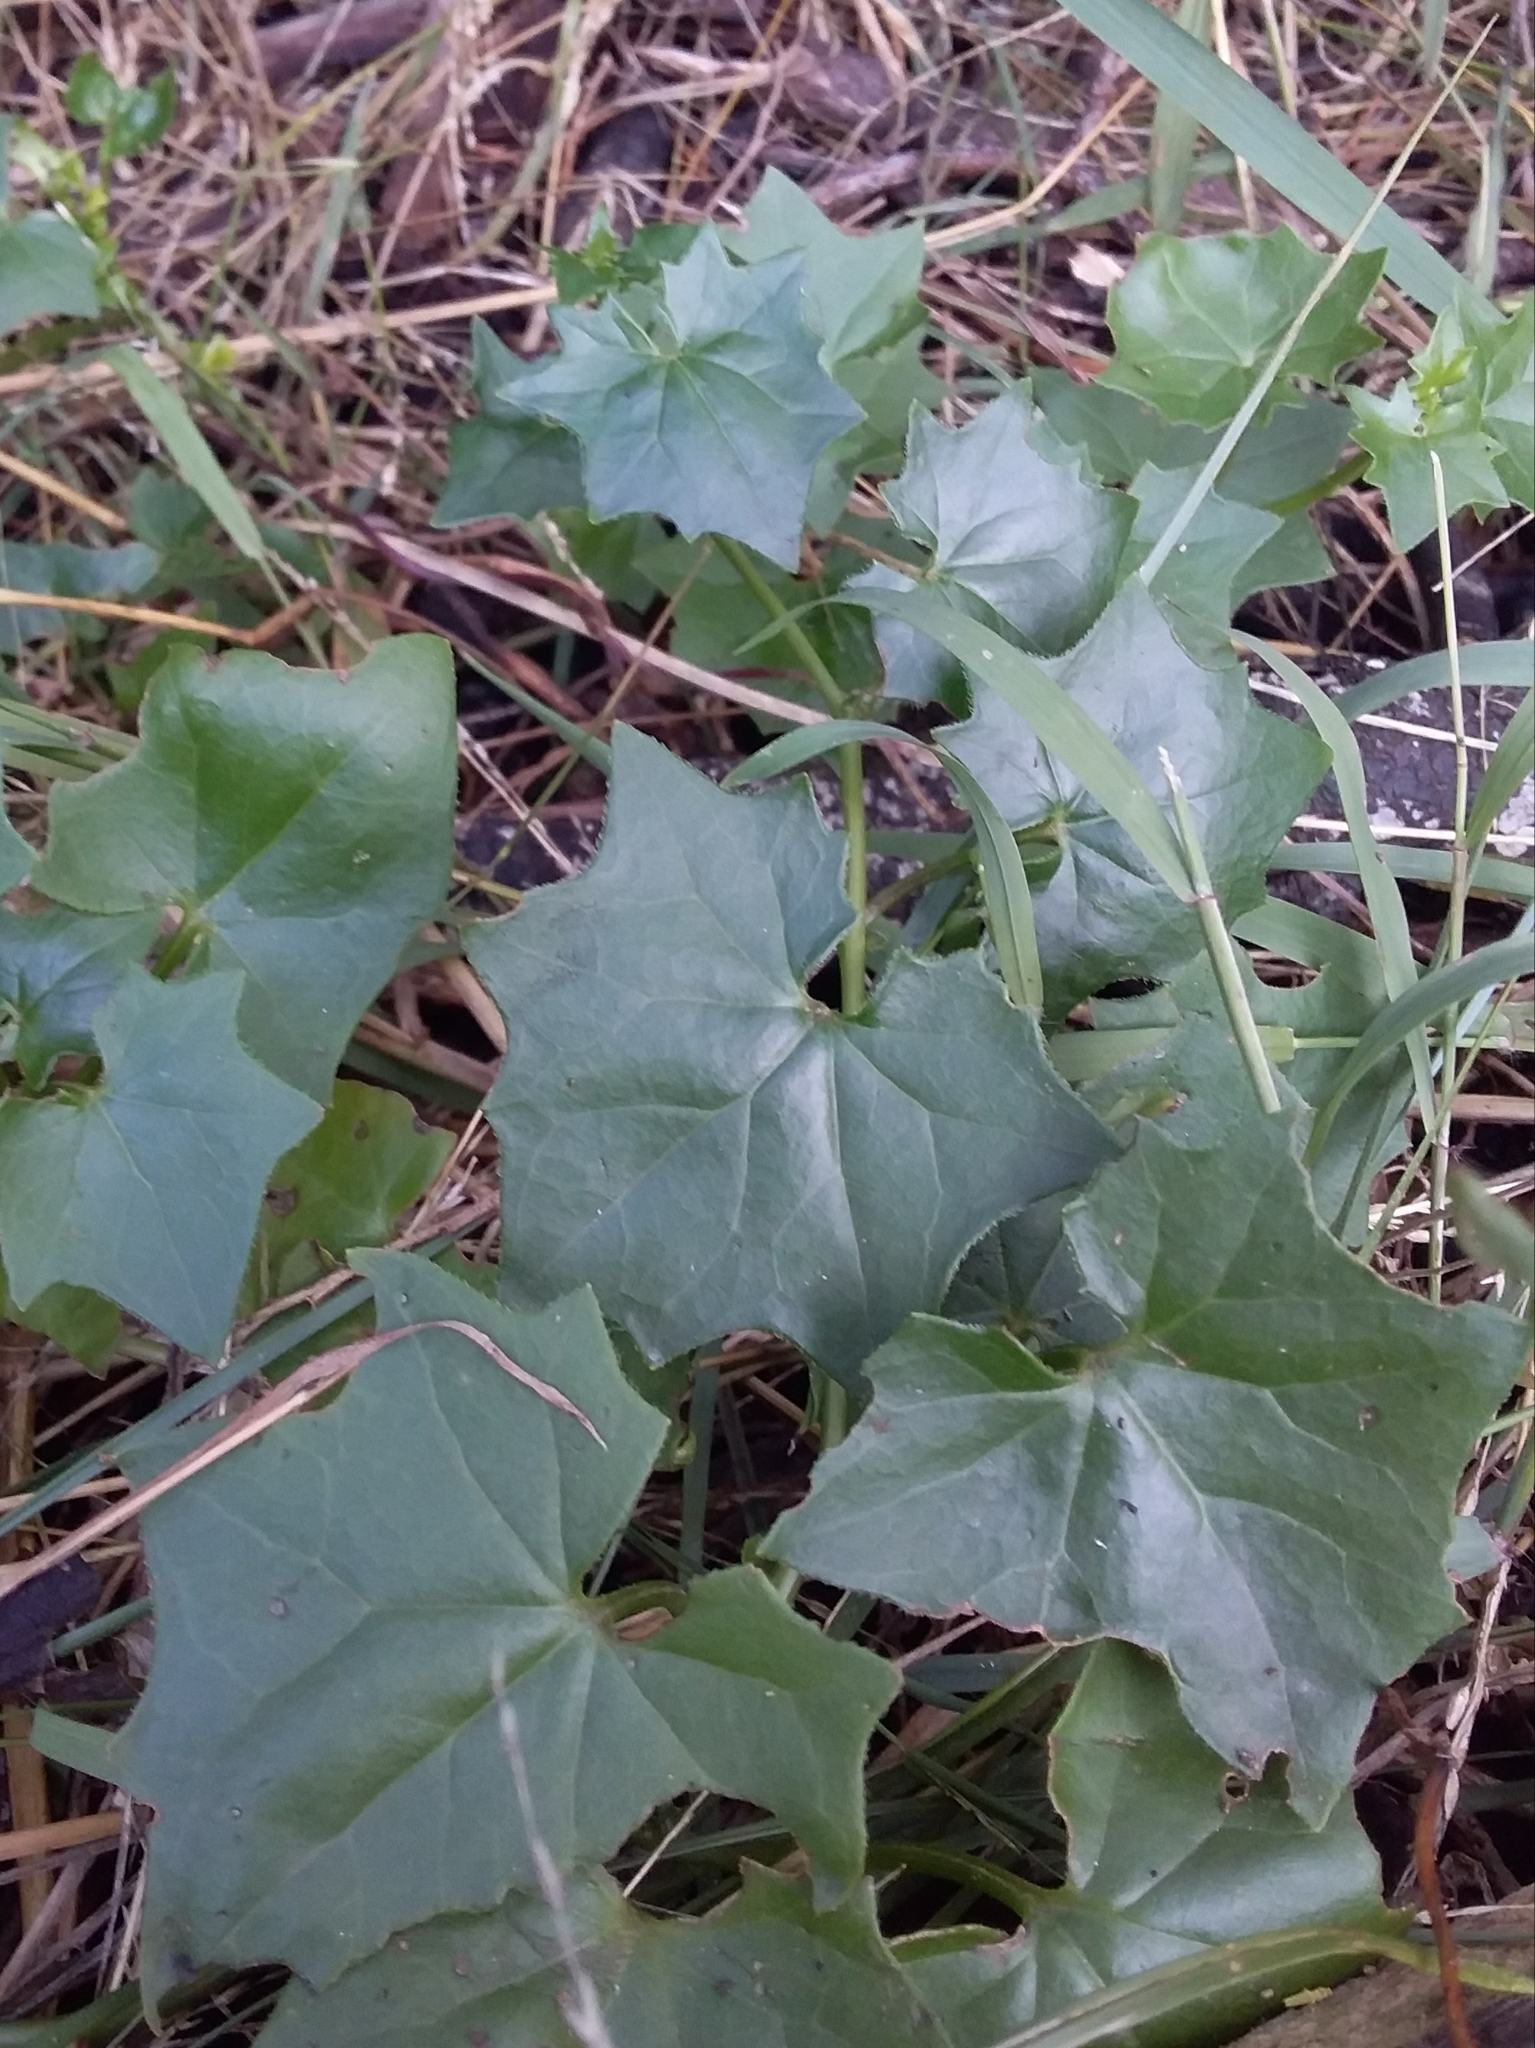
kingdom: Plantae
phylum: Tracheophyta
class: Magnoliopsida
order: Asterales
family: Asteraceae
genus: Delairea
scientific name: Delairea odorata
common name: Cape-ivy
